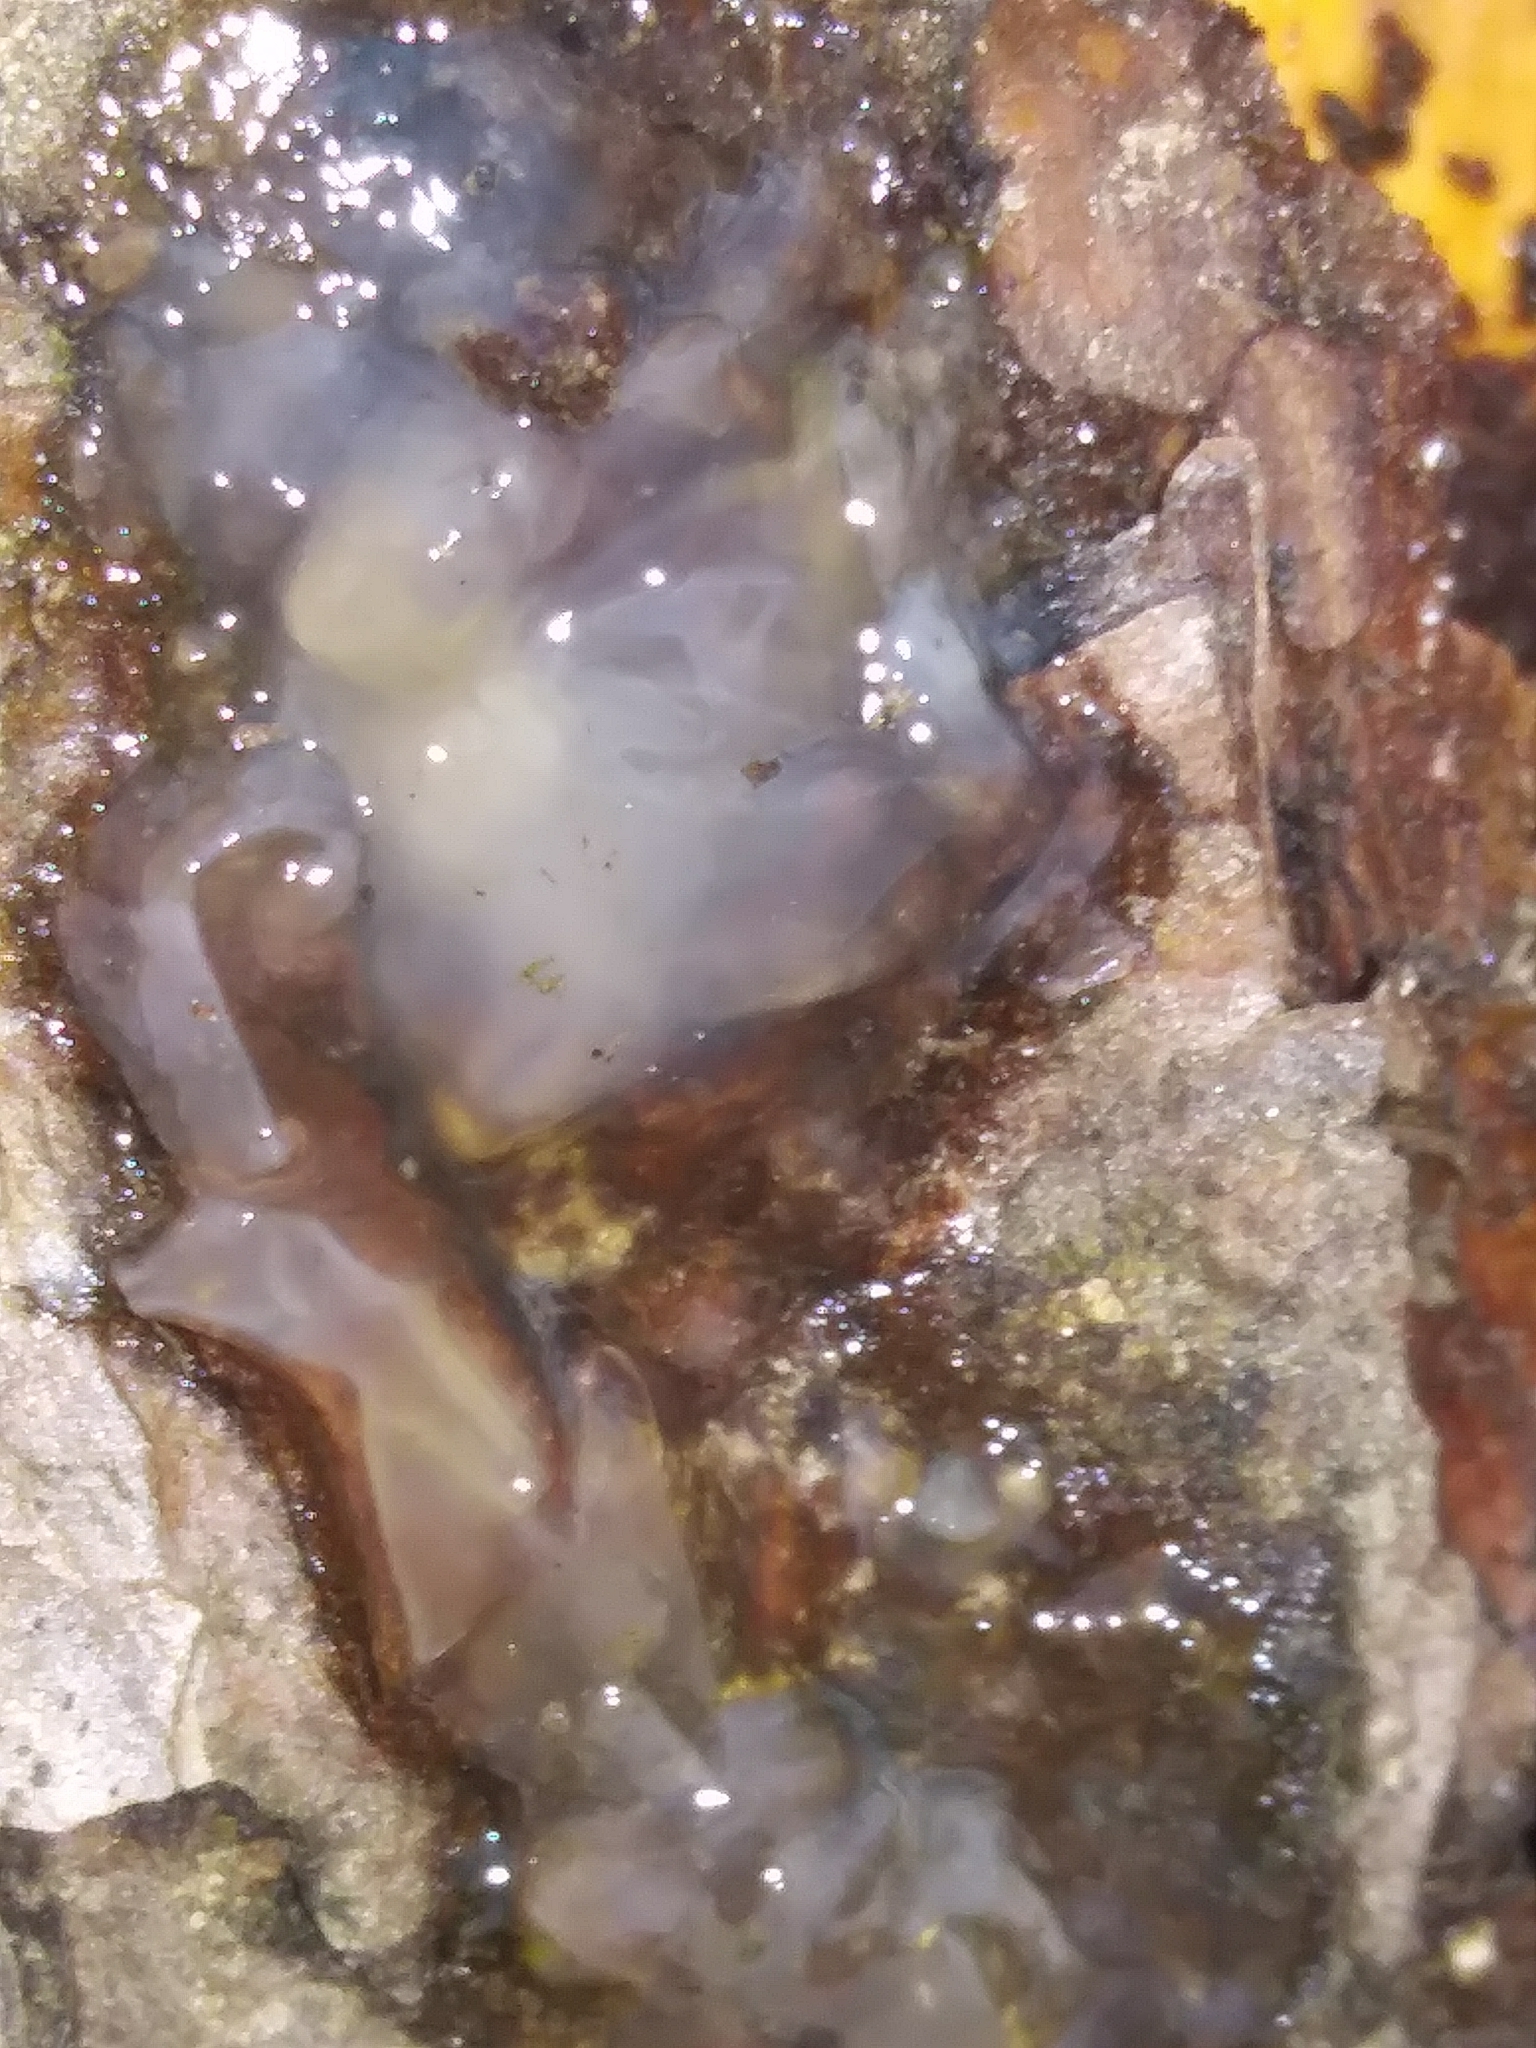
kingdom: Fungi
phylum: Basidiomycota
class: Agaricomycetes
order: Auriculariales
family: Hyaloriaceae
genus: Myxarium
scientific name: Myxarium nucleatum
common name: Crystal brain fungus
